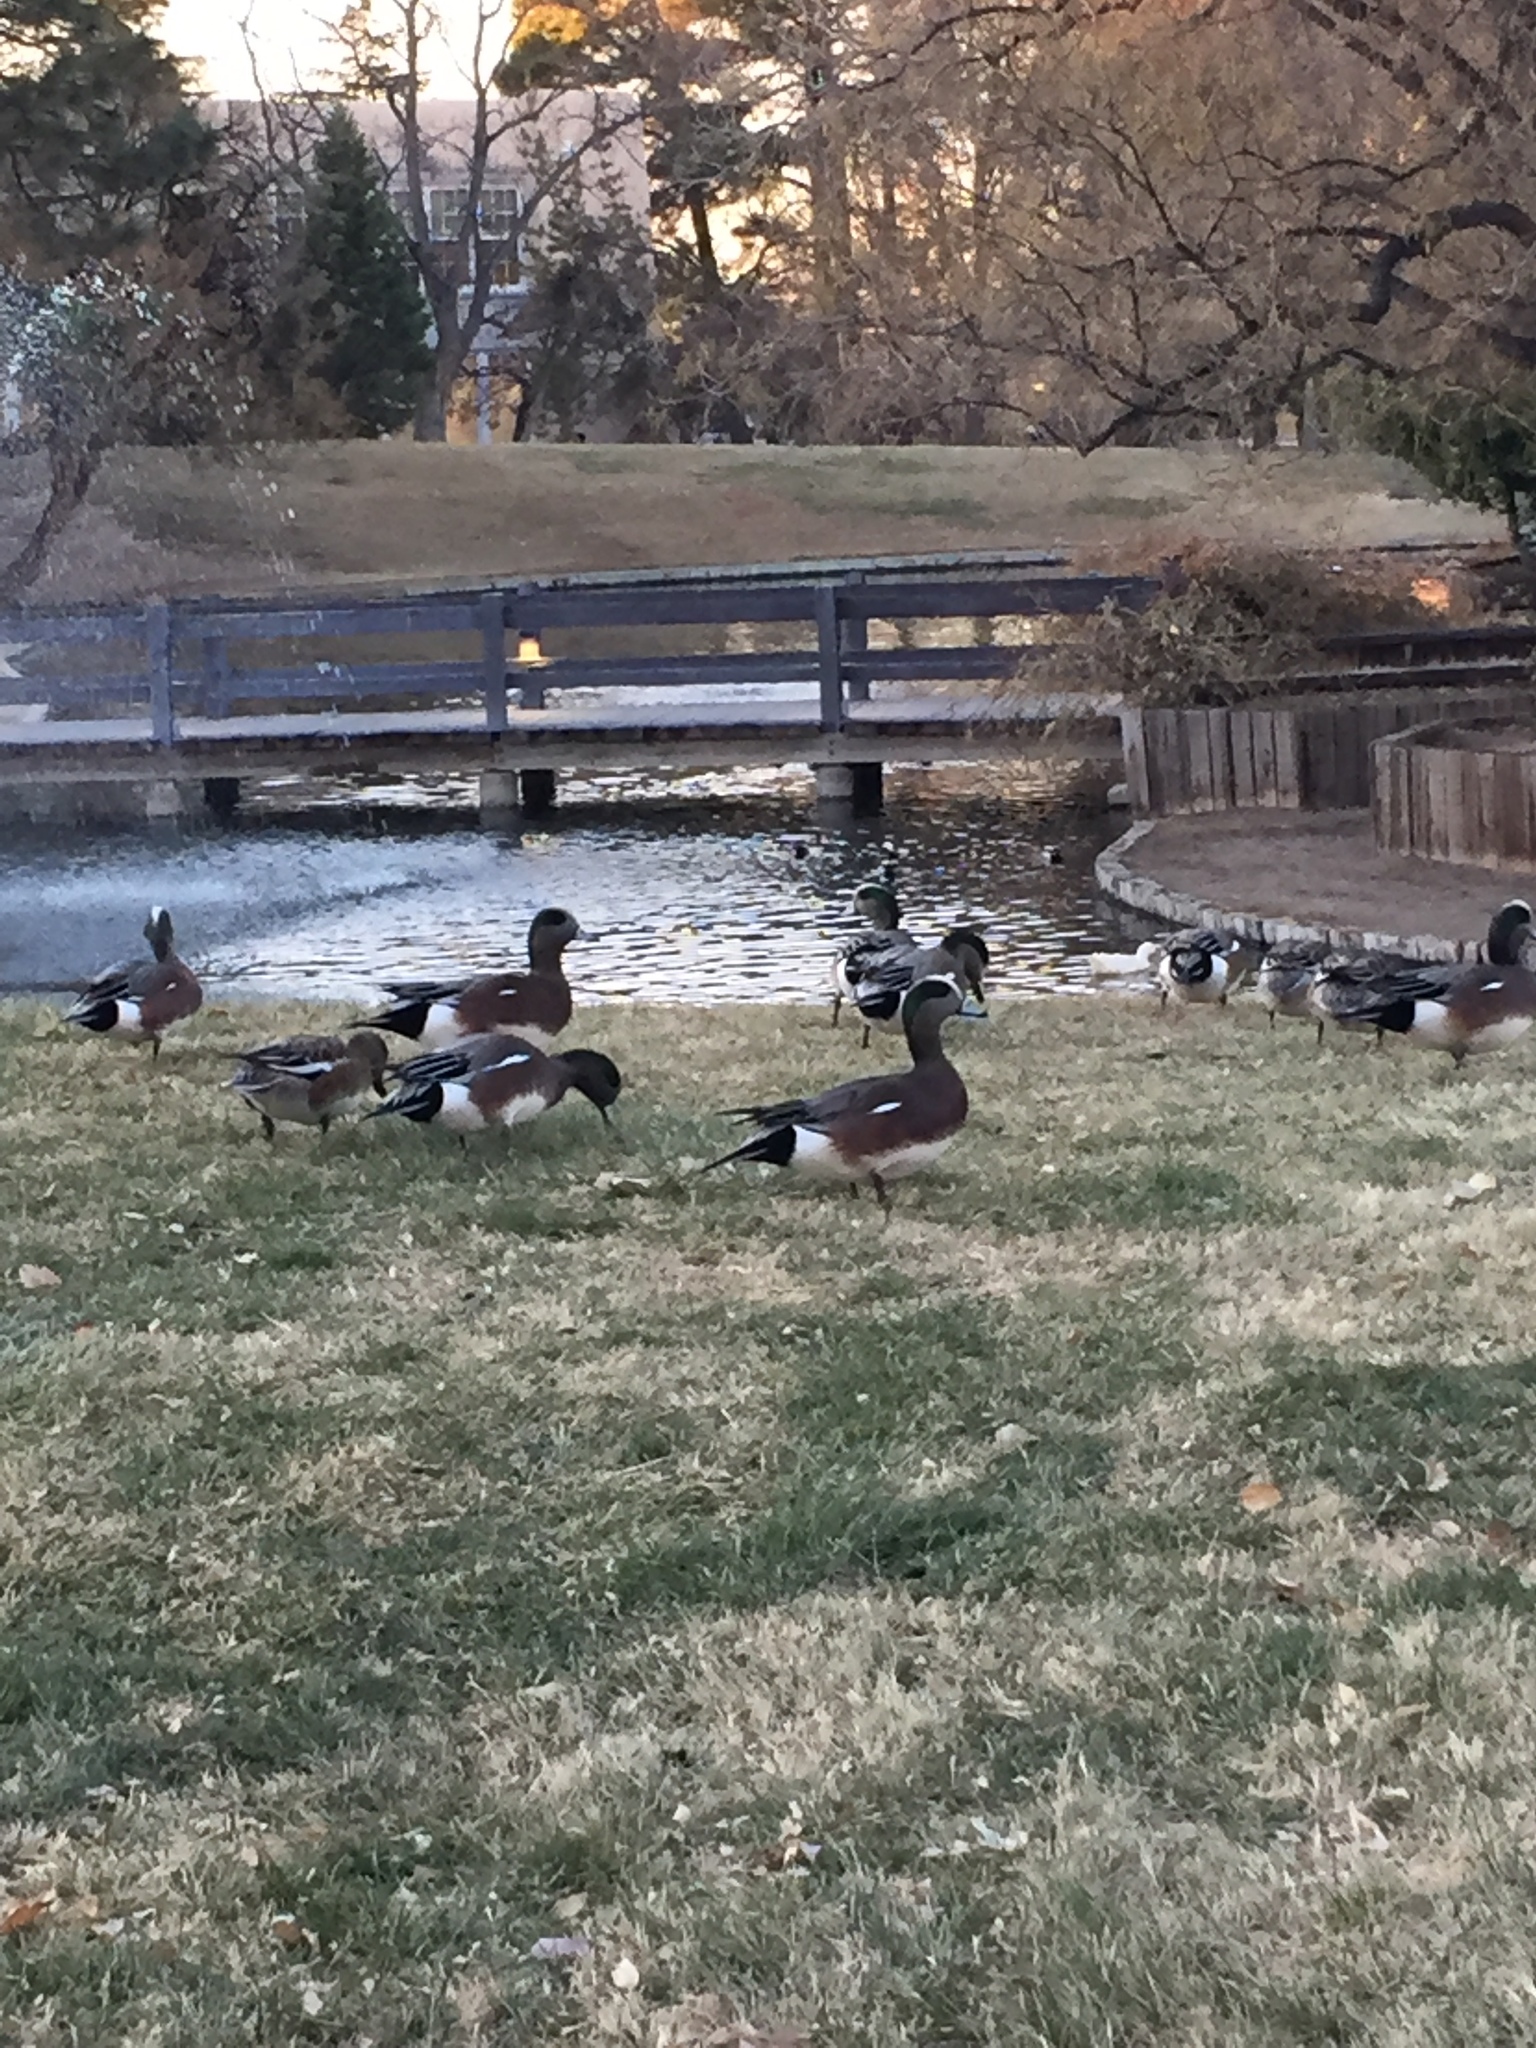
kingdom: Animalia
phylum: Chordata
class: Aves
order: Anseriformes
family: Anatidae
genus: Mareca
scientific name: Mareca americana
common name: American wigeon
